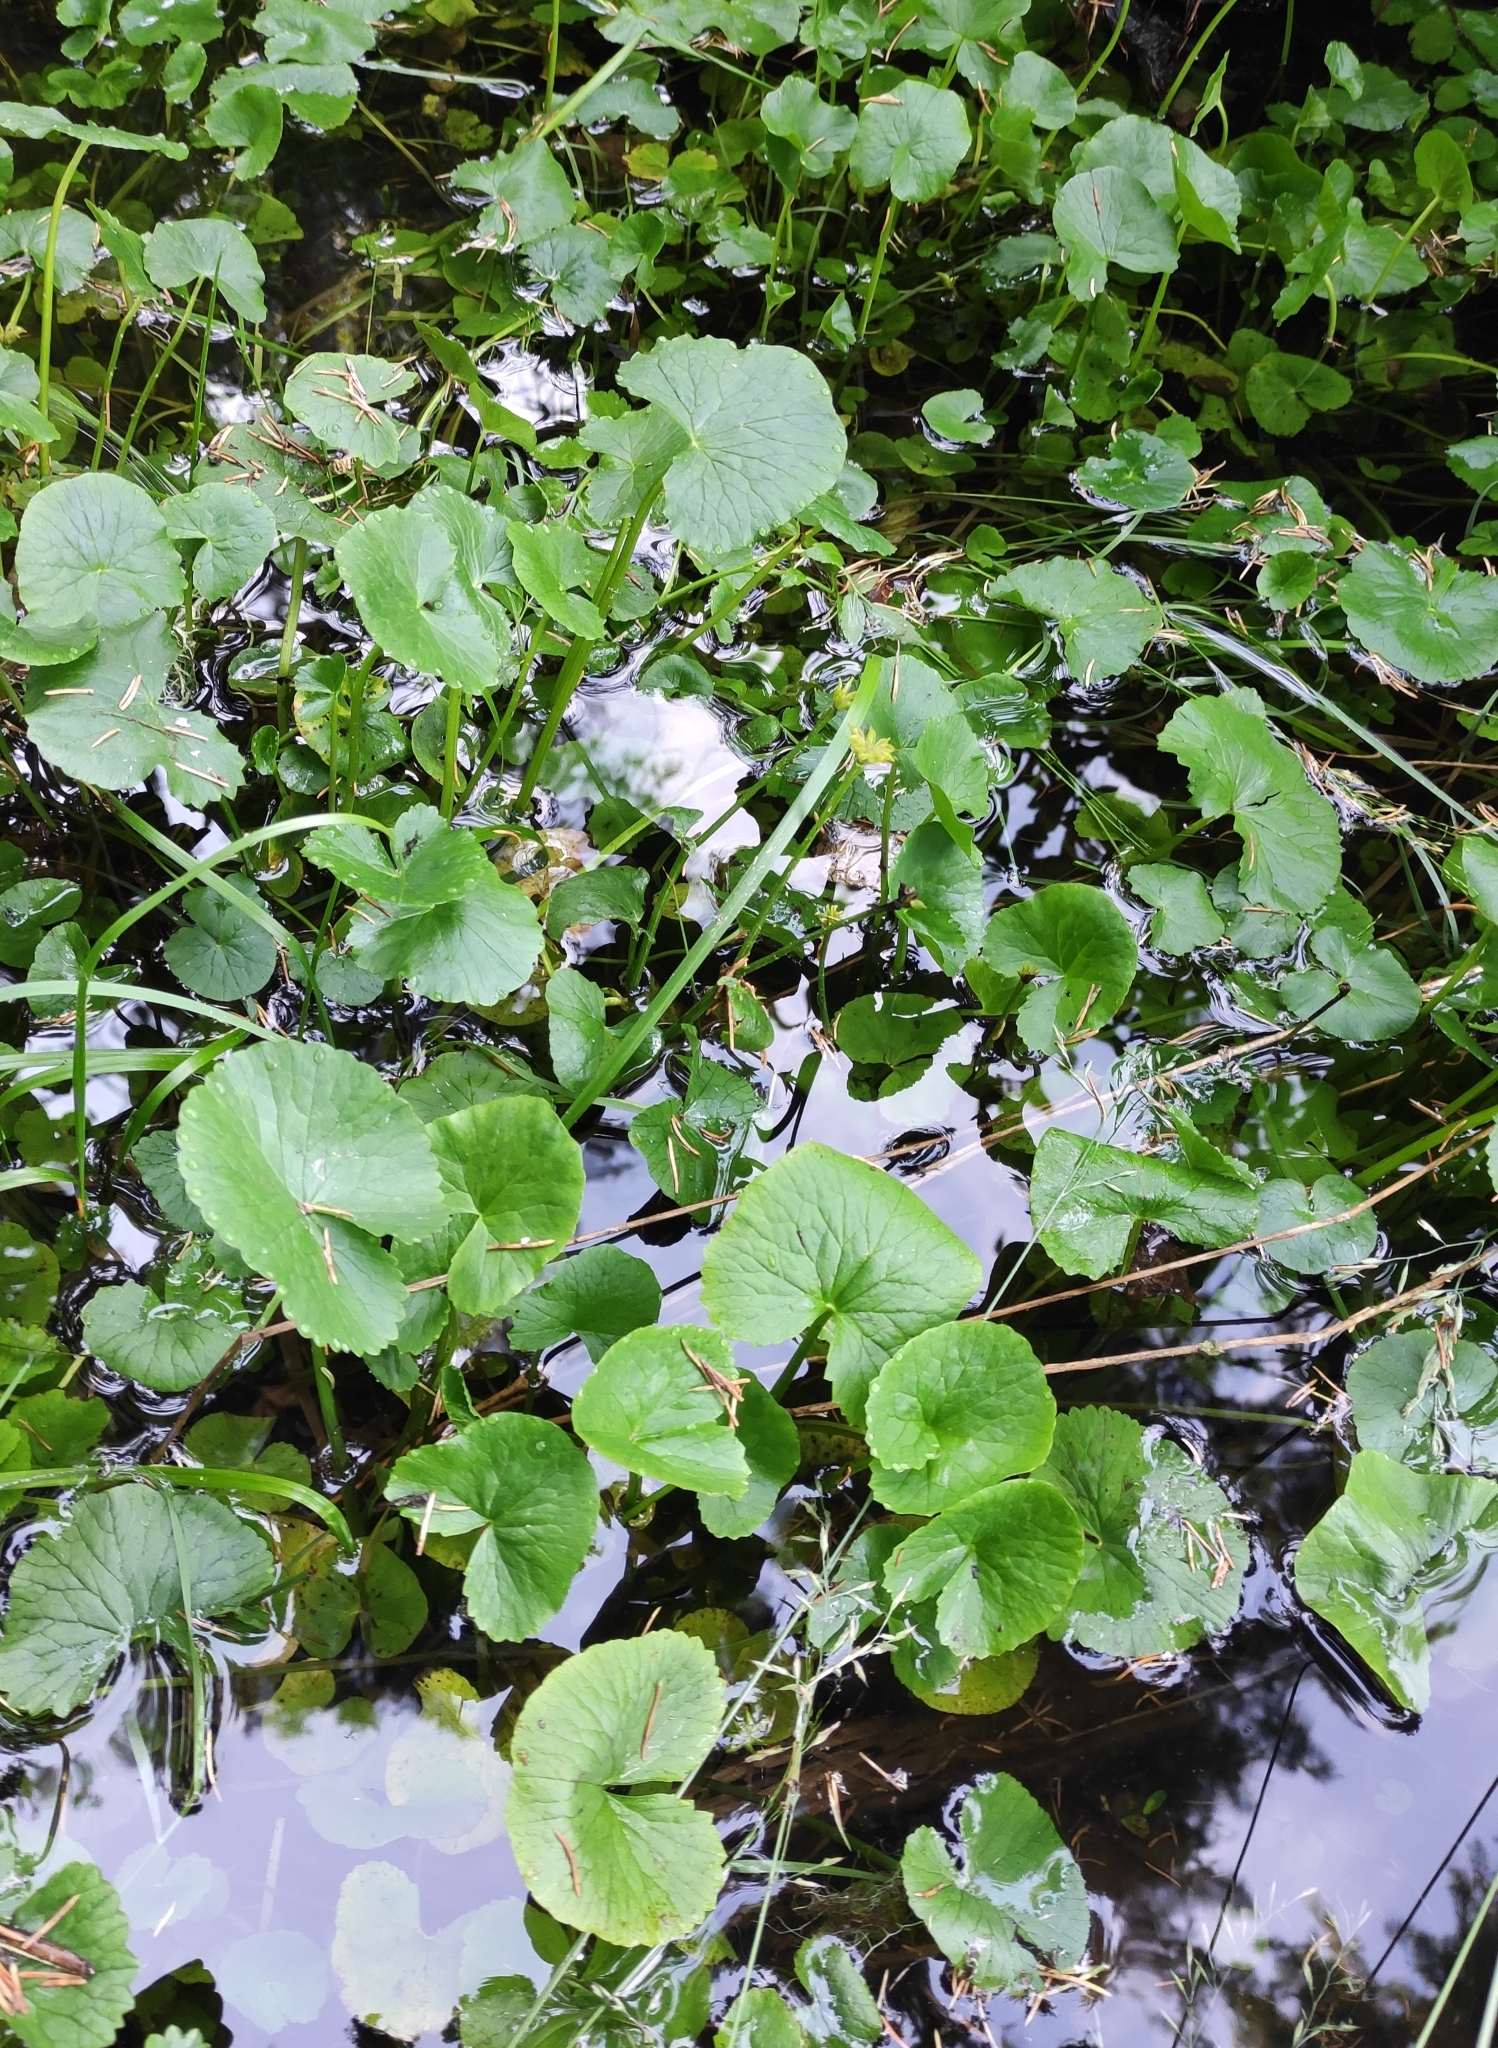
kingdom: Plantae
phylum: Tracheophyta
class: Magnoliopsida
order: Ranunculales
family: Ranunculaceae
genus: Caltha
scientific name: Caltha palustris
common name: Marsh marigold
